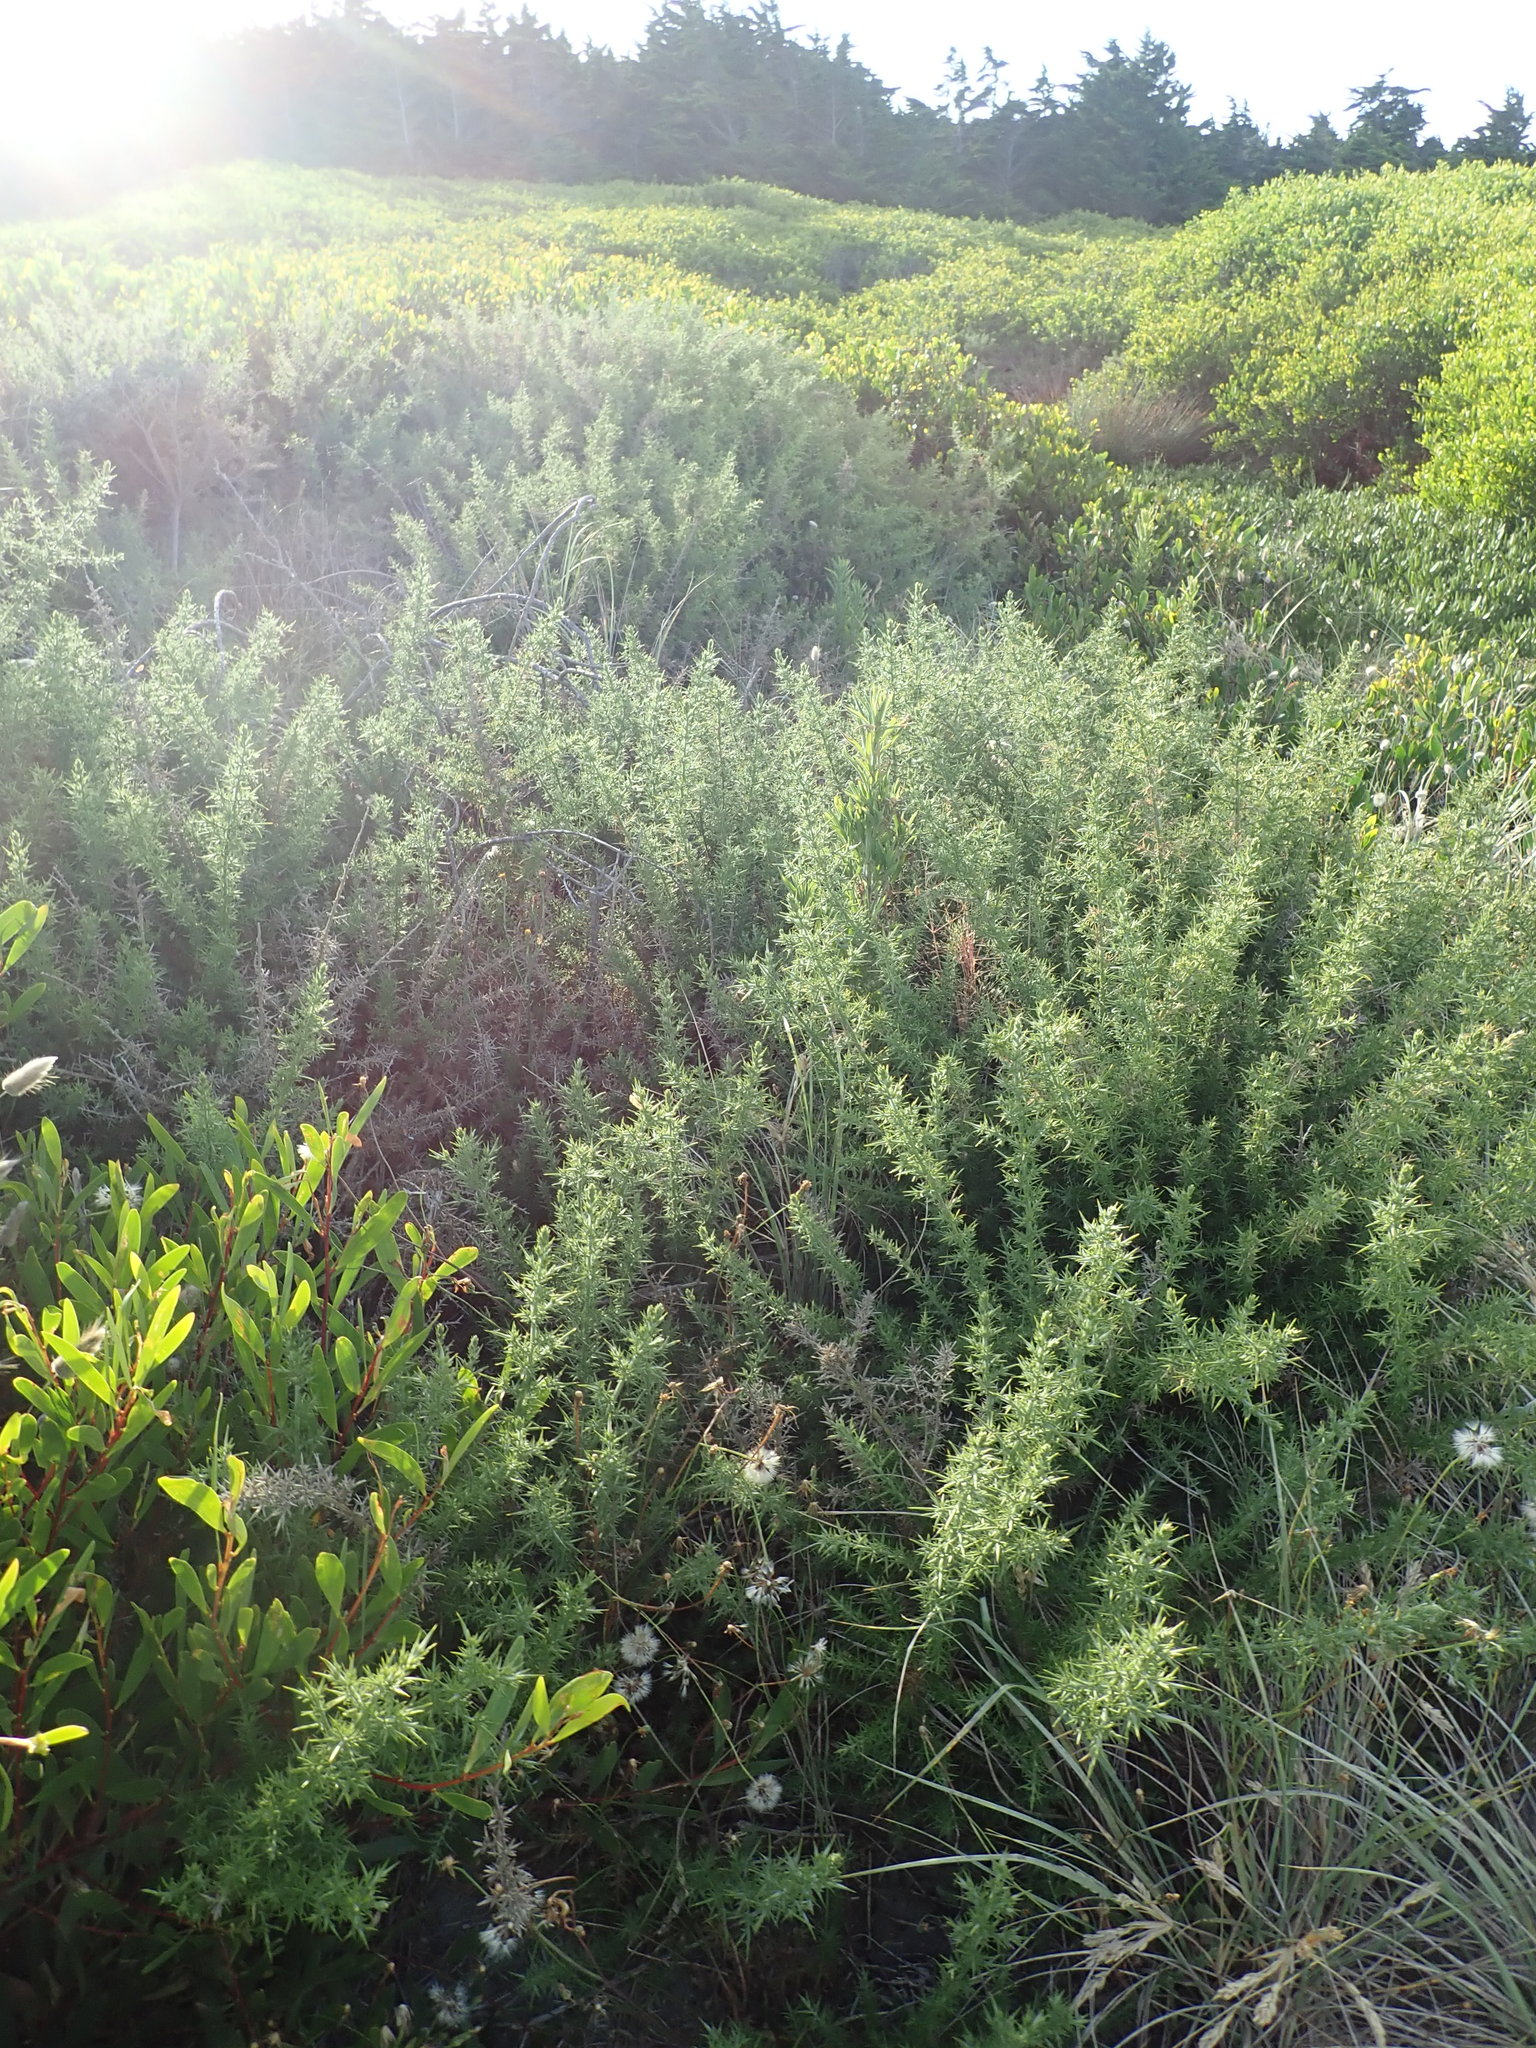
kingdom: Plantae
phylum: Tracheophyta
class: Magnoliopsida
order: Fabales
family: Fabaceae
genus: Ulex
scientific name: Ulex europaeus
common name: Common gorse
